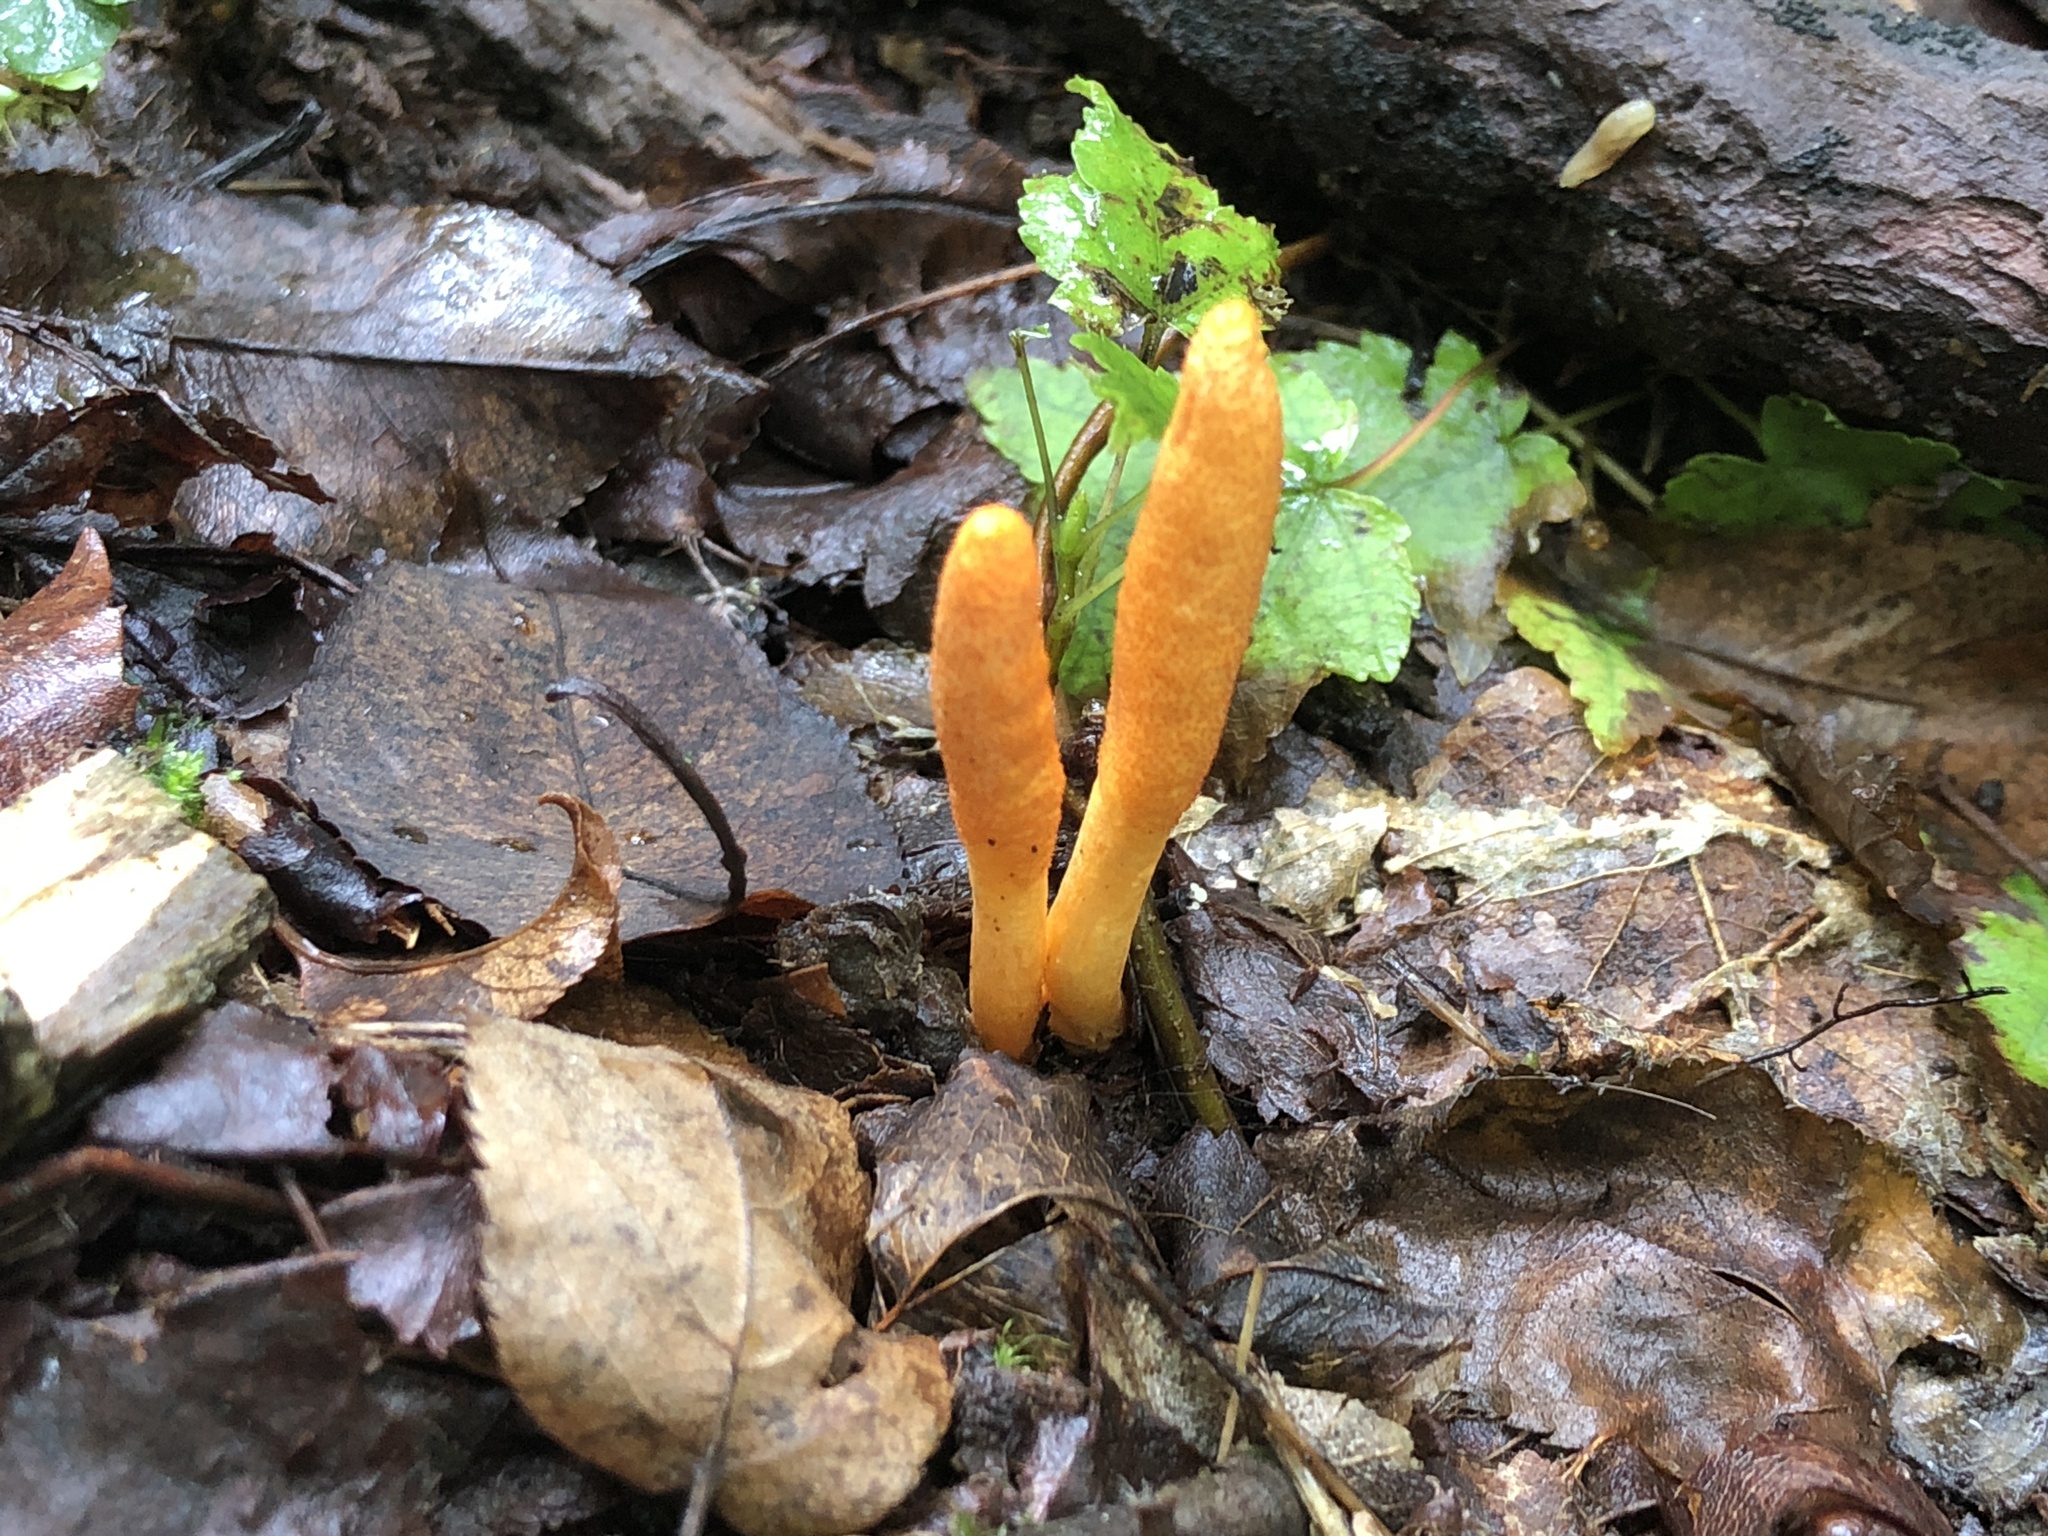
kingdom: Fungi
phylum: Ascomycota
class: Sordariomycetes
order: Hypocreales
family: Cordycipitaceae
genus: Cordyceps
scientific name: Cordyceps militaris
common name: Scarlet caterpillar fungus
